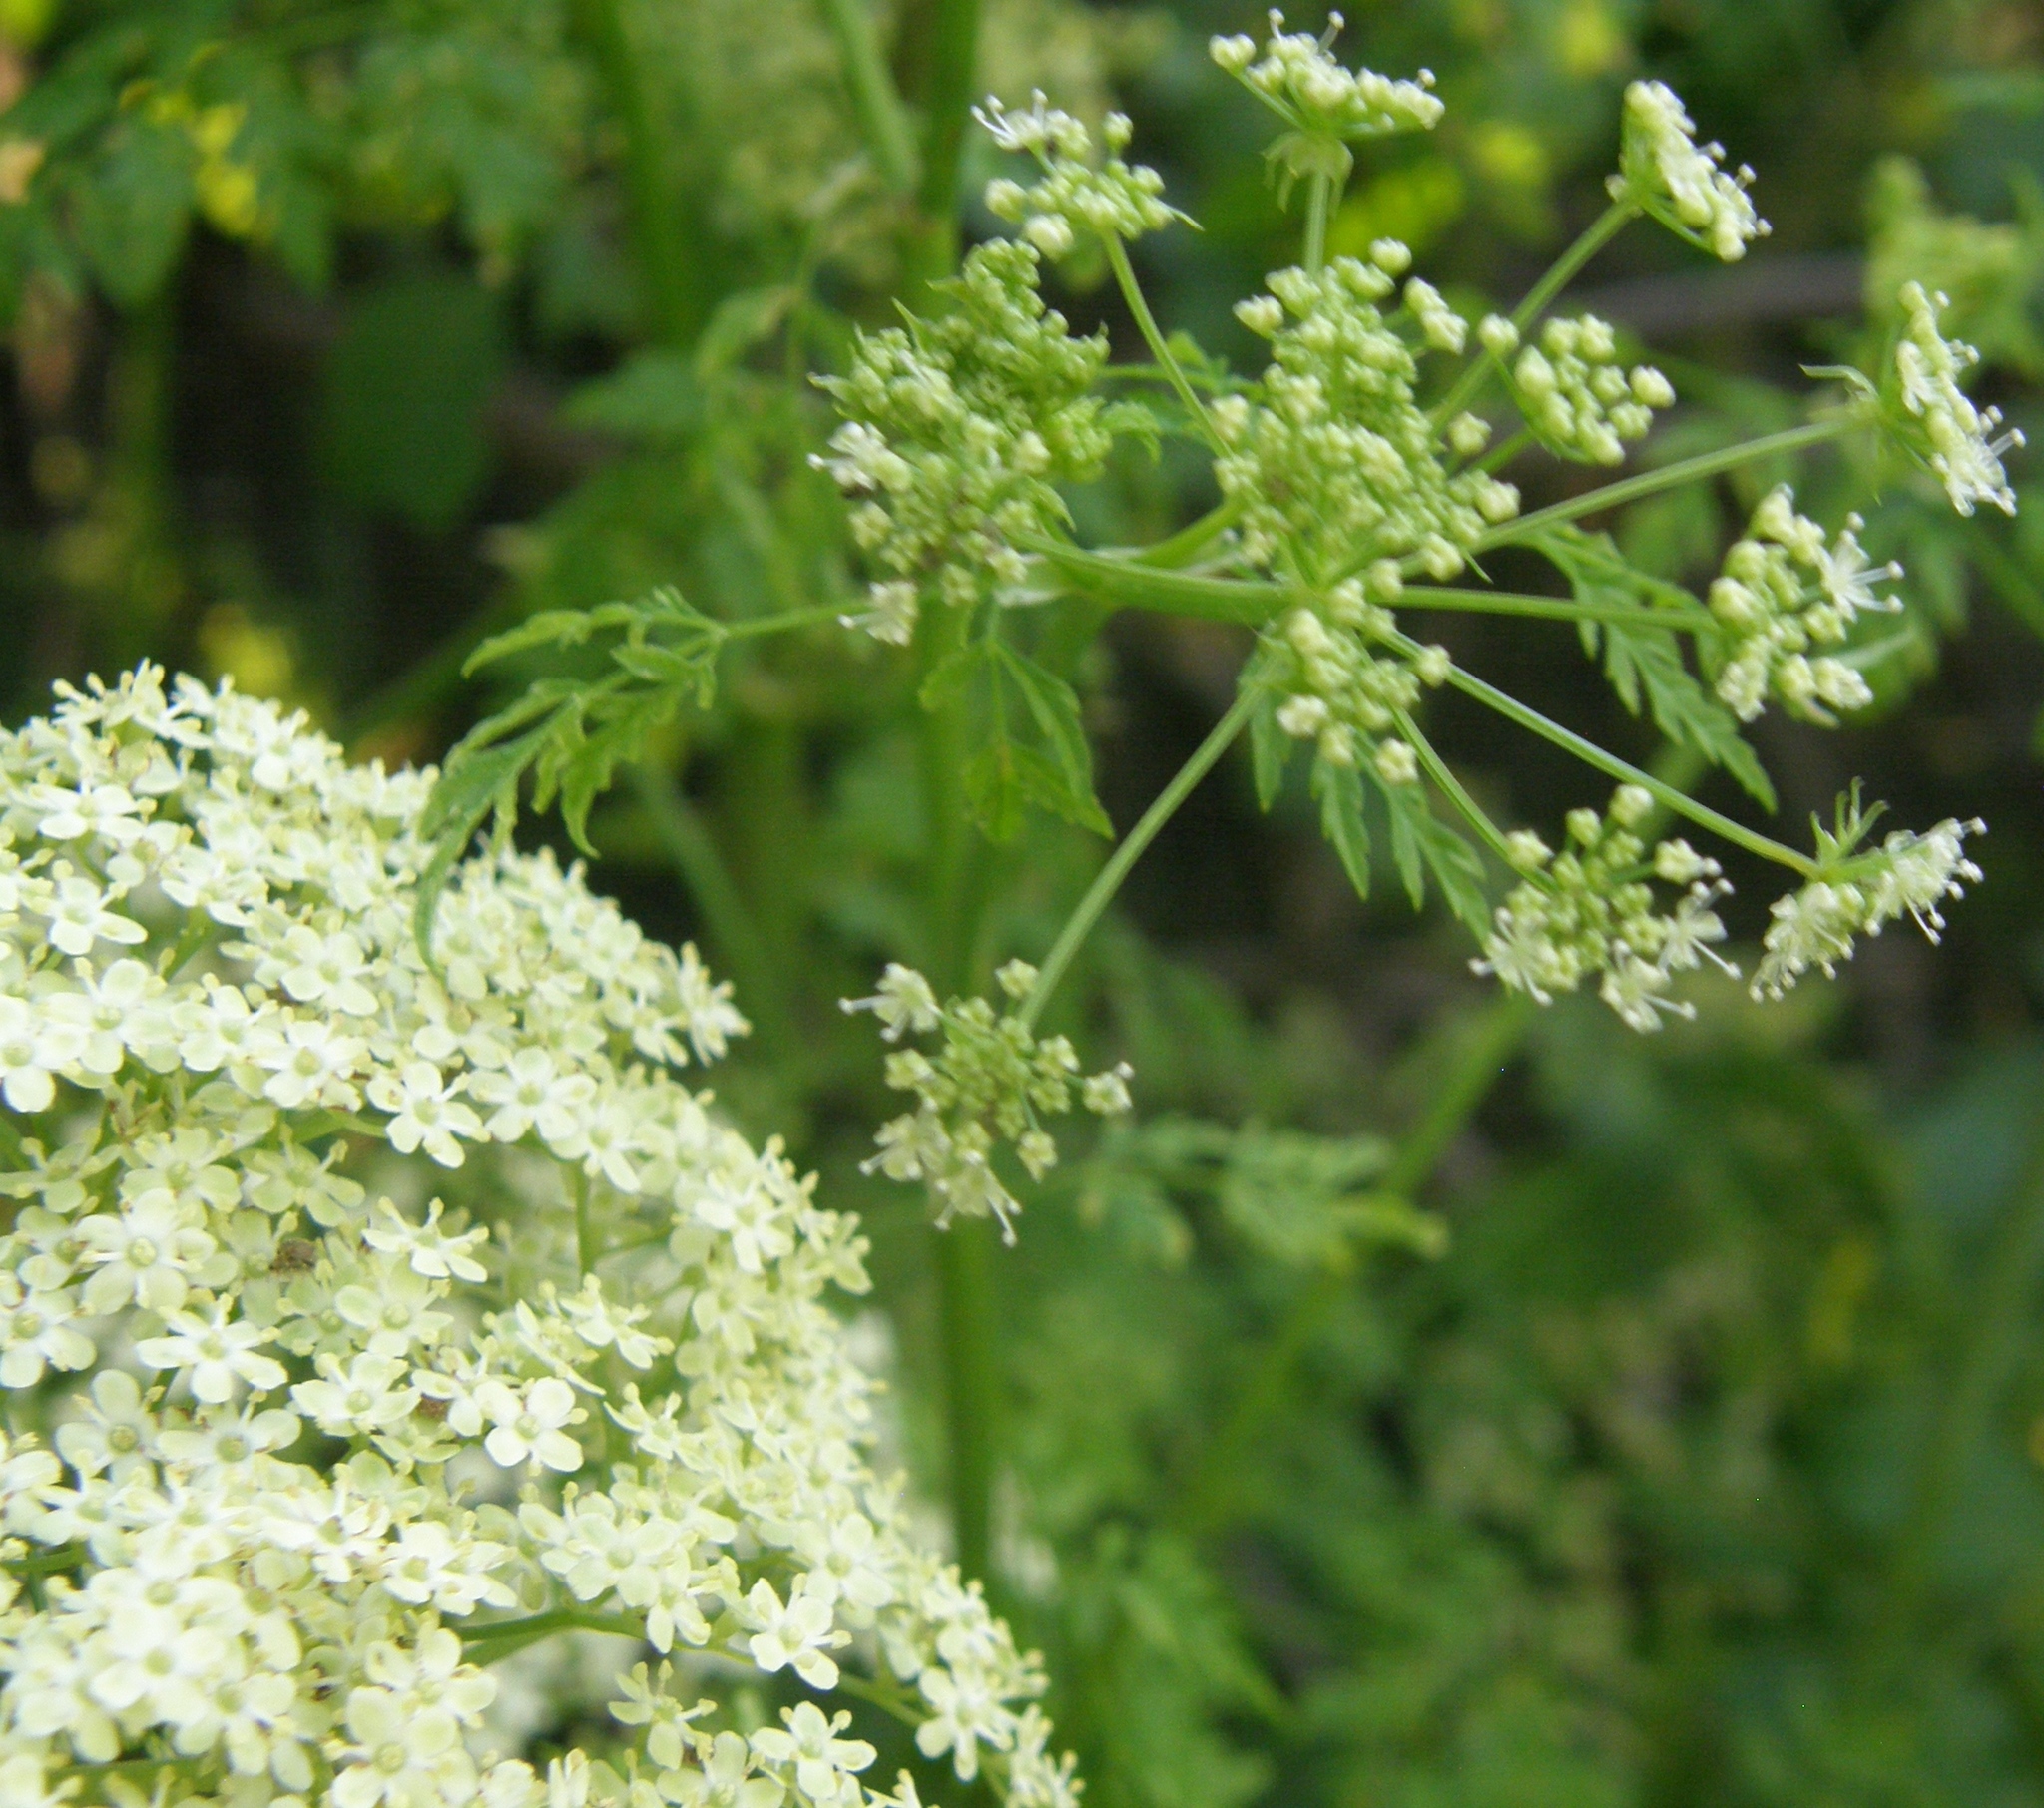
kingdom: Plantae
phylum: Tracheophyta
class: Magnoliopsida
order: Apiales
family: Apiaceae
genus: Conium
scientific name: Conium maculatum
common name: Hemlock
